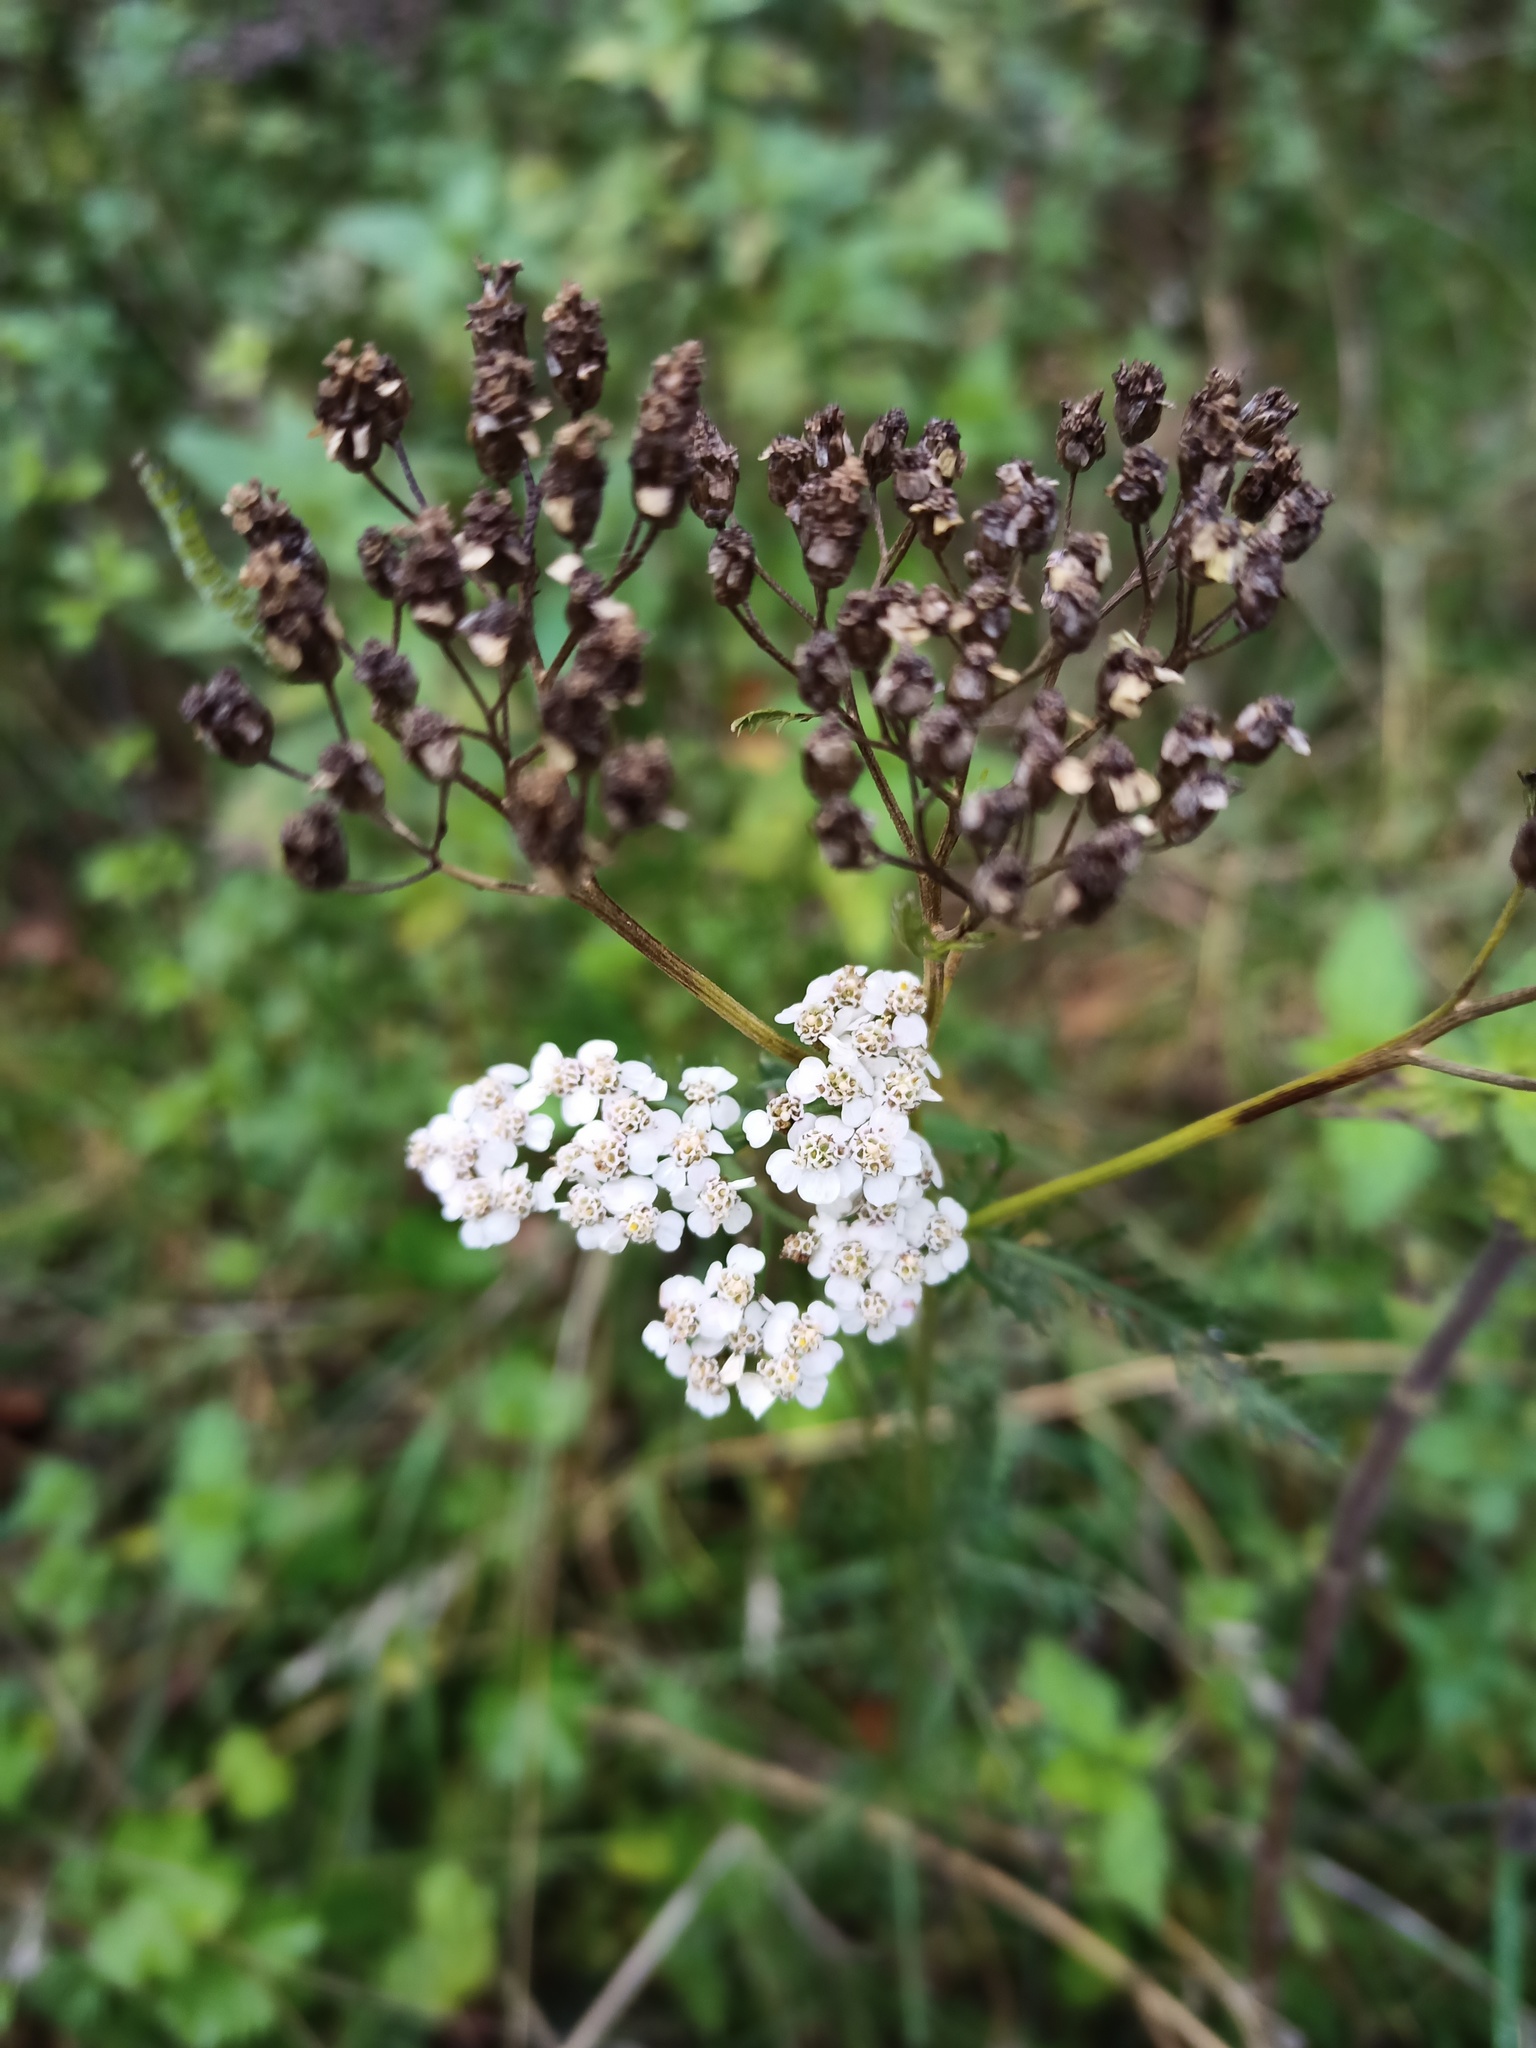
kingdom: Plantae
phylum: Tracheophyta
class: Magnoliopsida
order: Asterales
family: Asteraceae
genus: Achillea
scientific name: Achillea millefolium
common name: Yarrow
